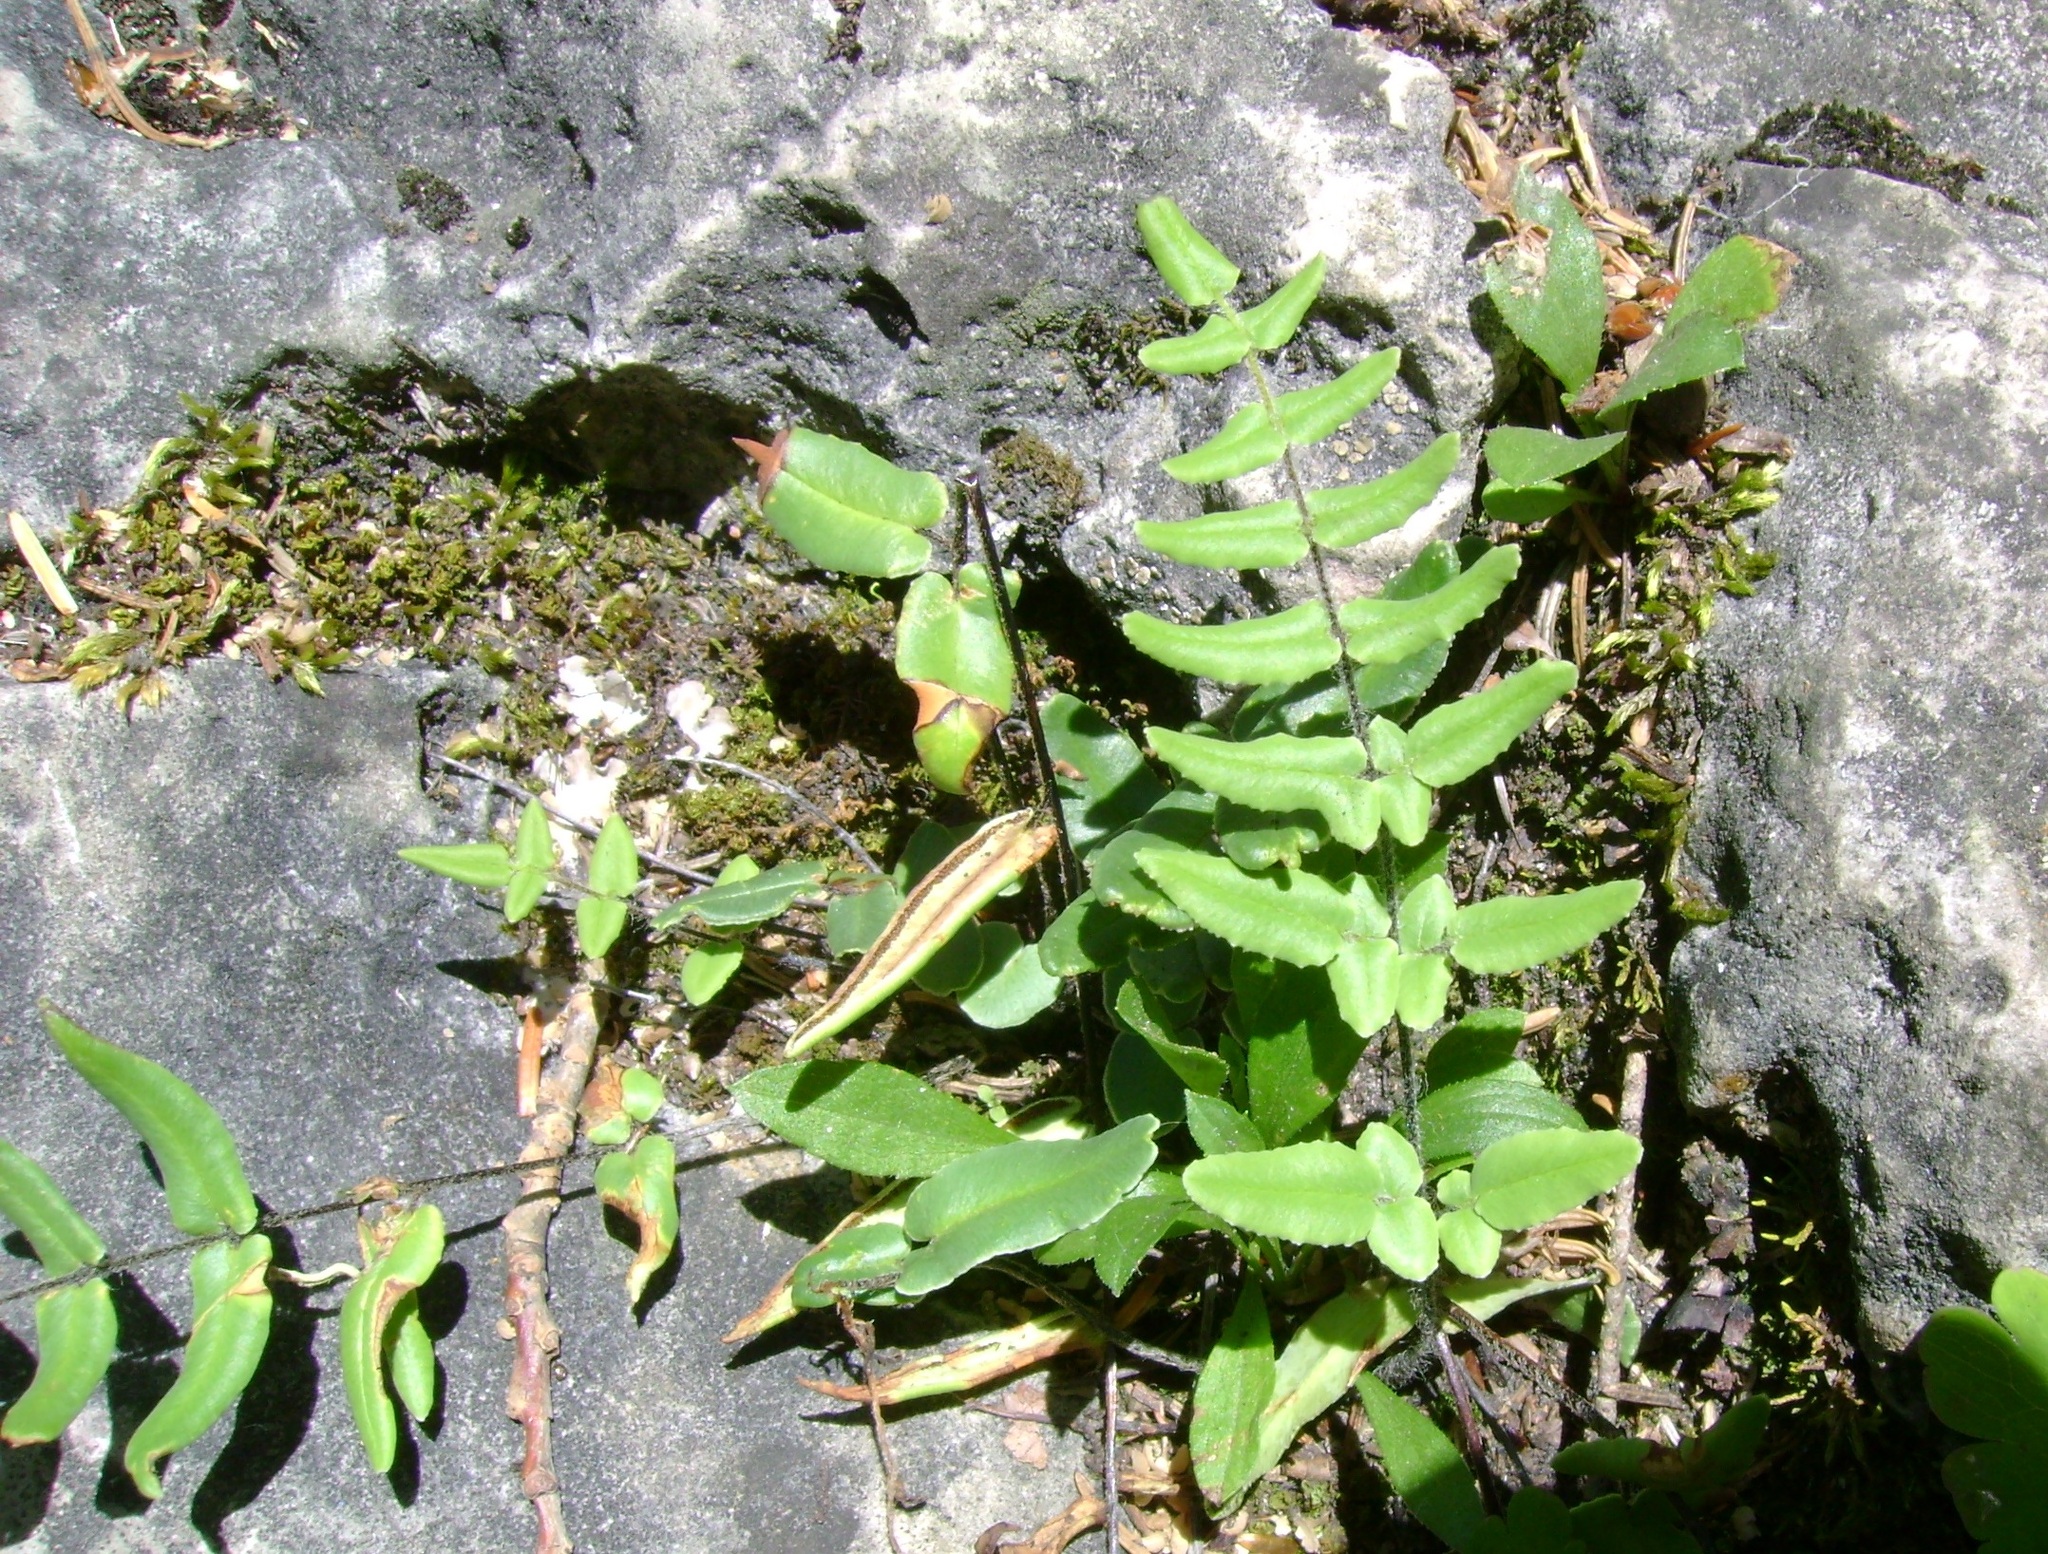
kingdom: Plantae
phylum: Tracheophyta
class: Polypodiopsida
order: Polypodiales
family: Pteridaceae
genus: Pellaea
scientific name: Pellaea atropurpurea
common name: Hairy cliffbrake
